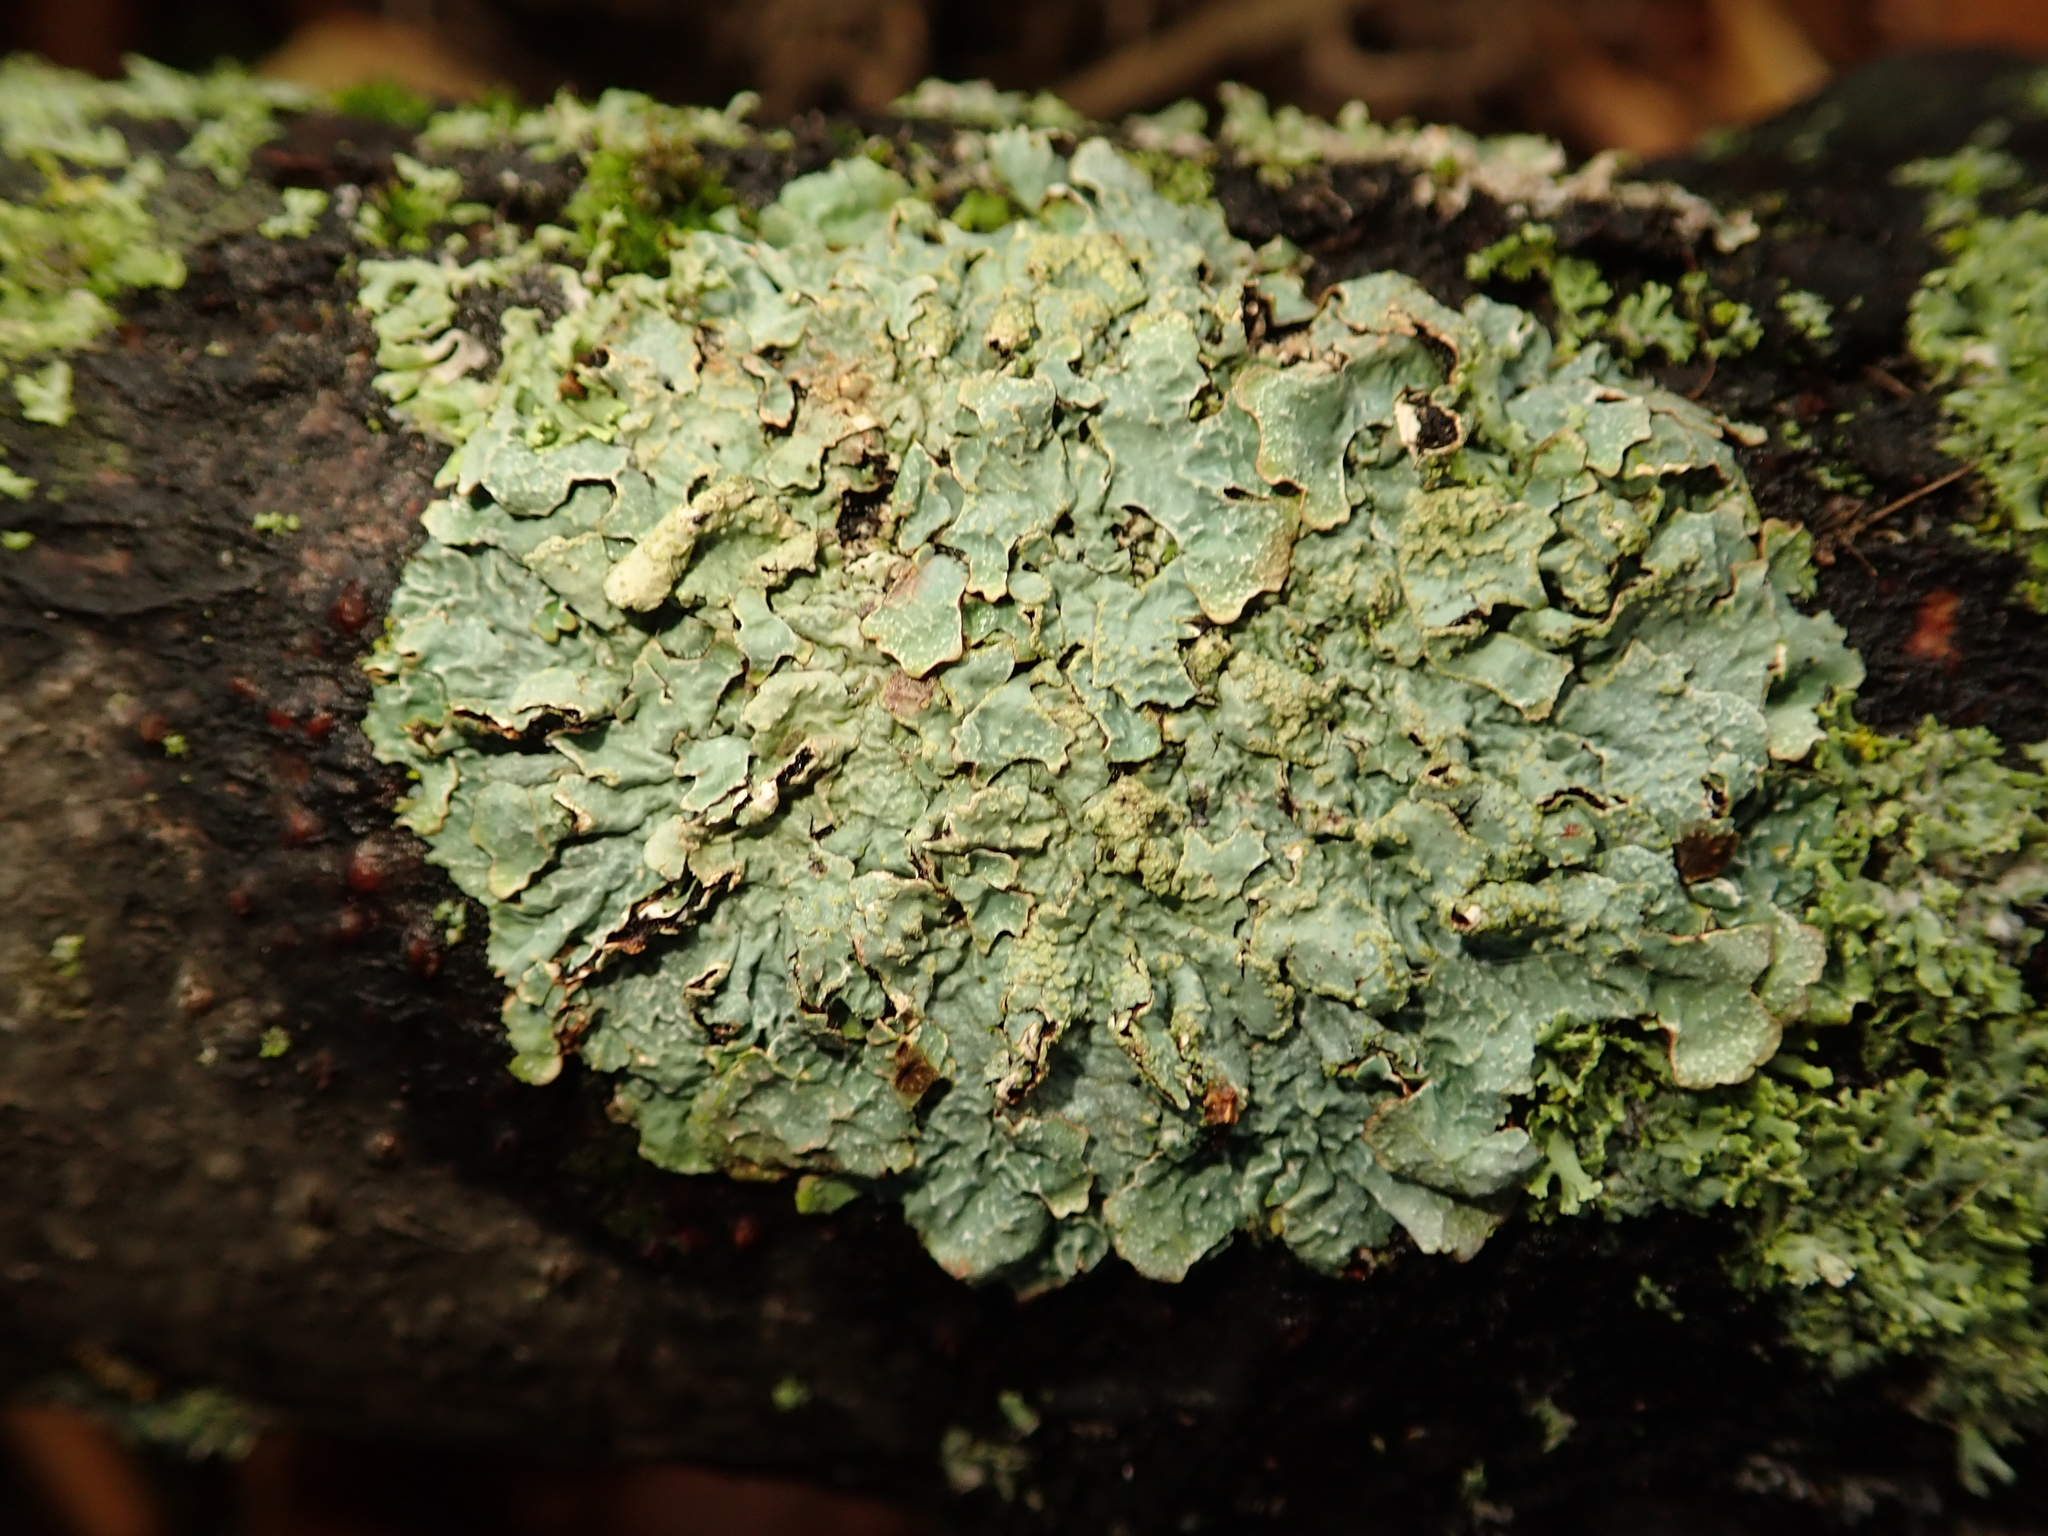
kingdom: Fungi
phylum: Ascomycota
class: Lecanoromycetes
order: Lecanorales
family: Parmeliaceae
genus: Parmelia
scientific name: Parmelia sulcata
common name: Netted shield lichen
